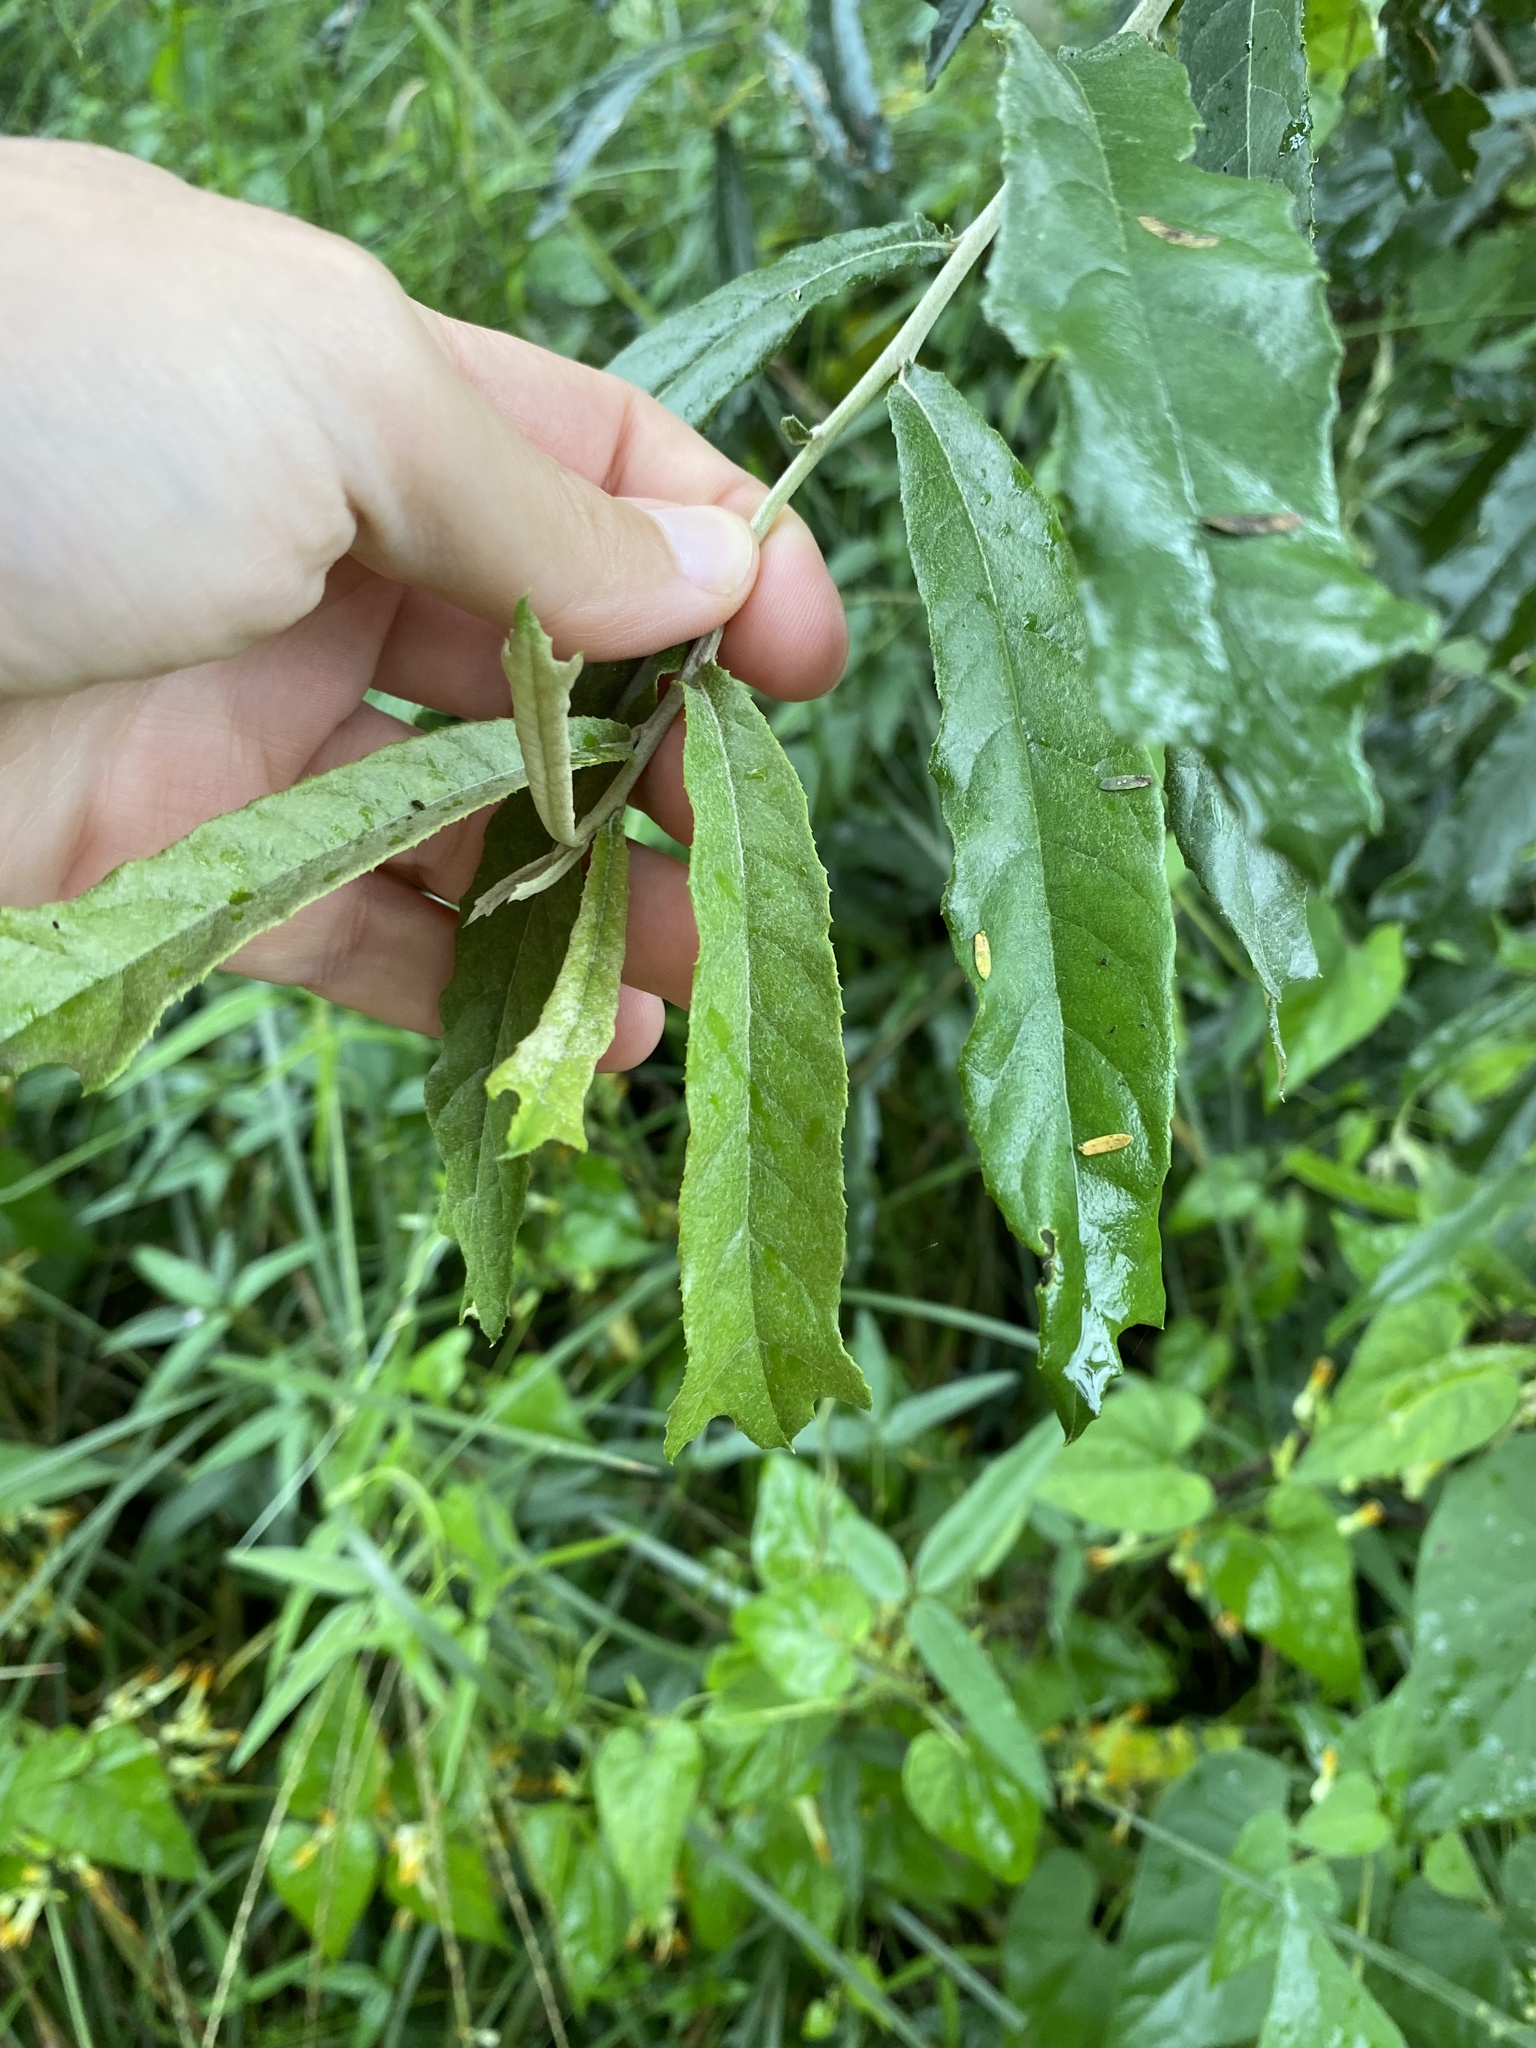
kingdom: Plantae
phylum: Tracheophyta
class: Magnoliopsida
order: Asterales
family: Asteraceae
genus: Brachylaena
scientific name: Brachylaena elliptica
